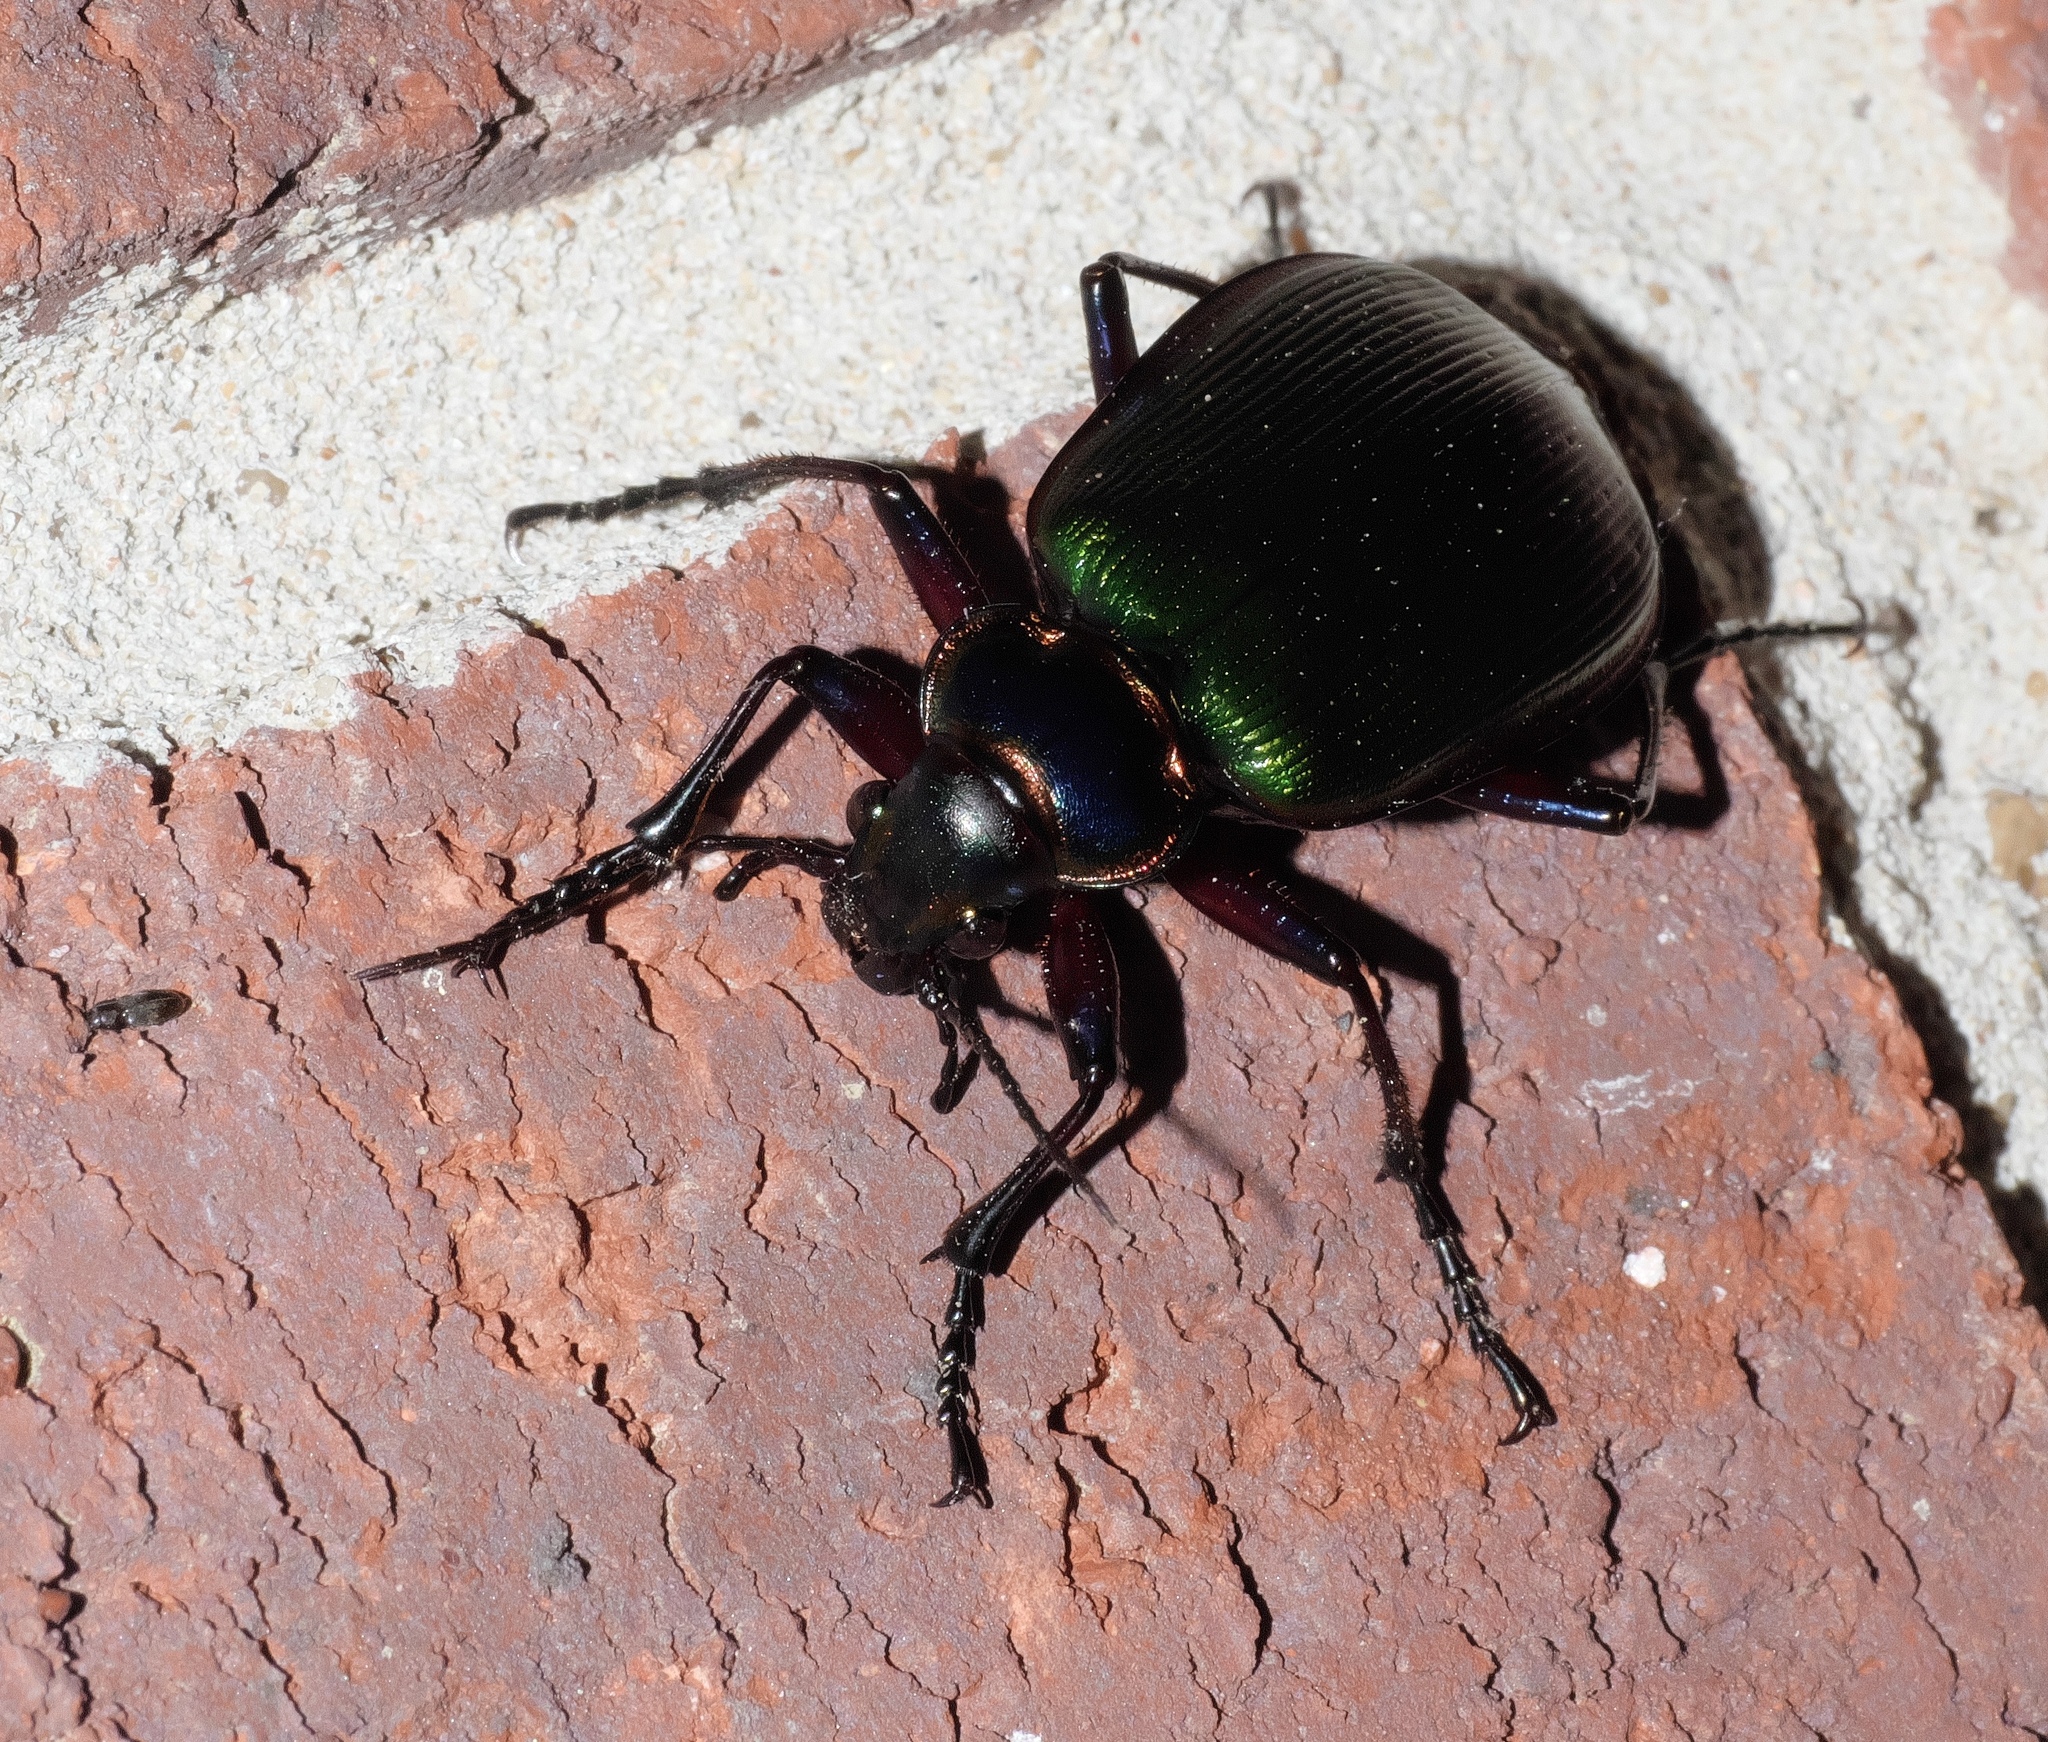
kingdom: Animalia
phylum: Arthropoda
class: Insecta
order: Coleoptera
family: Carabidae
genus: Calosoma
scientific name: Calosoma scrutator
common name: Fiery searcher beetle
